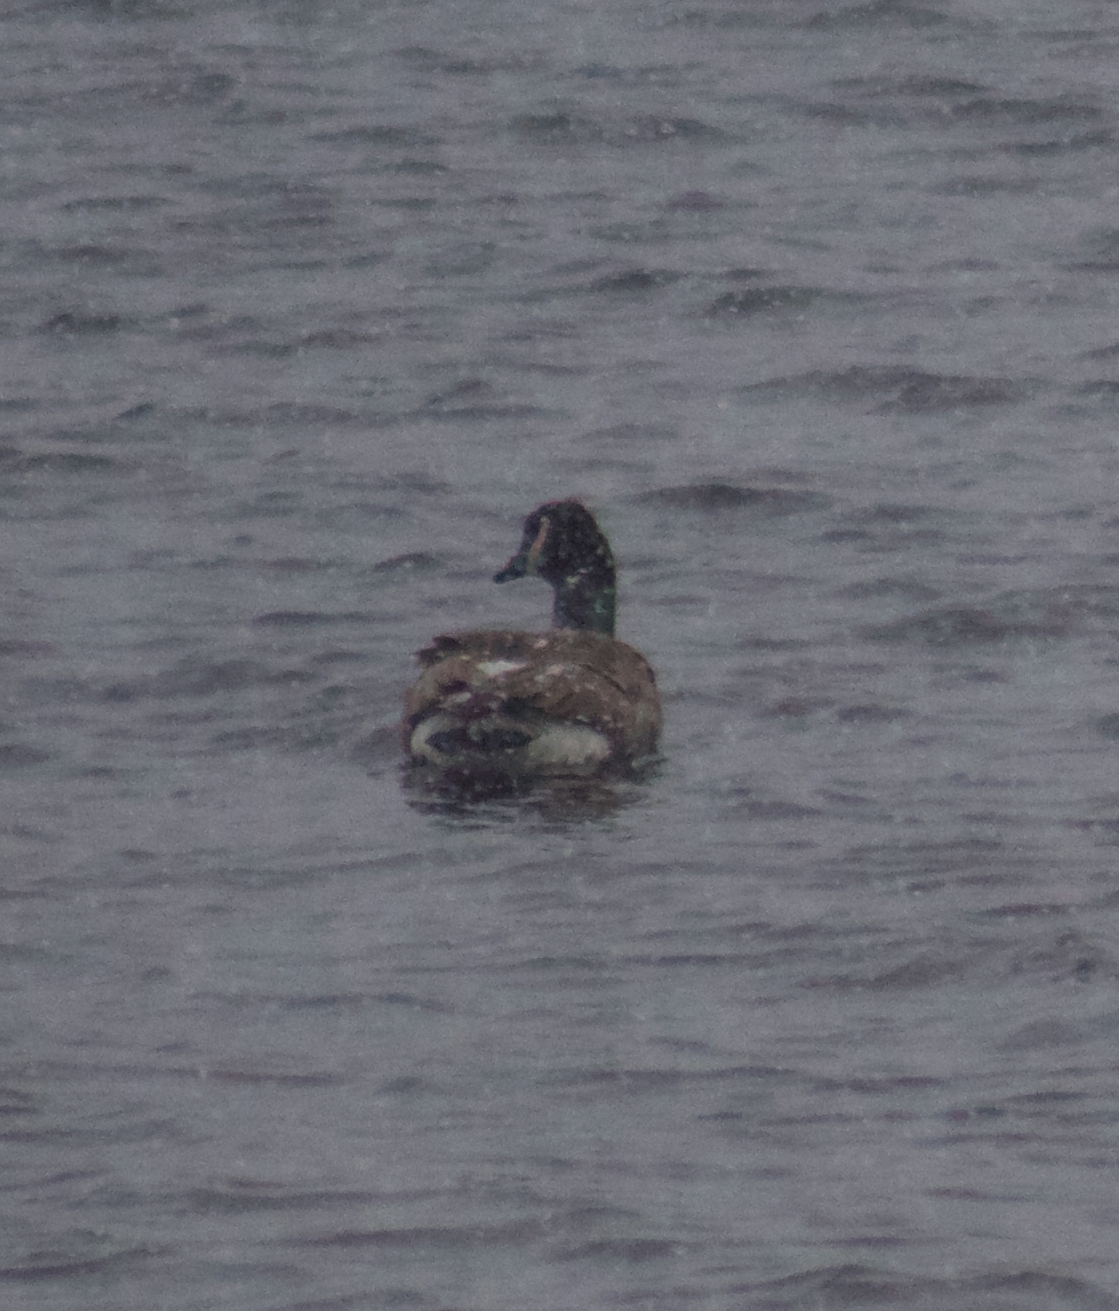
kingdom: Animalia
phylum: Chordata
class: Aves
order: Anseriformes
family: Anatidae
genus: Branta
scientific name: Branta canadensis
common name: Canada goose
